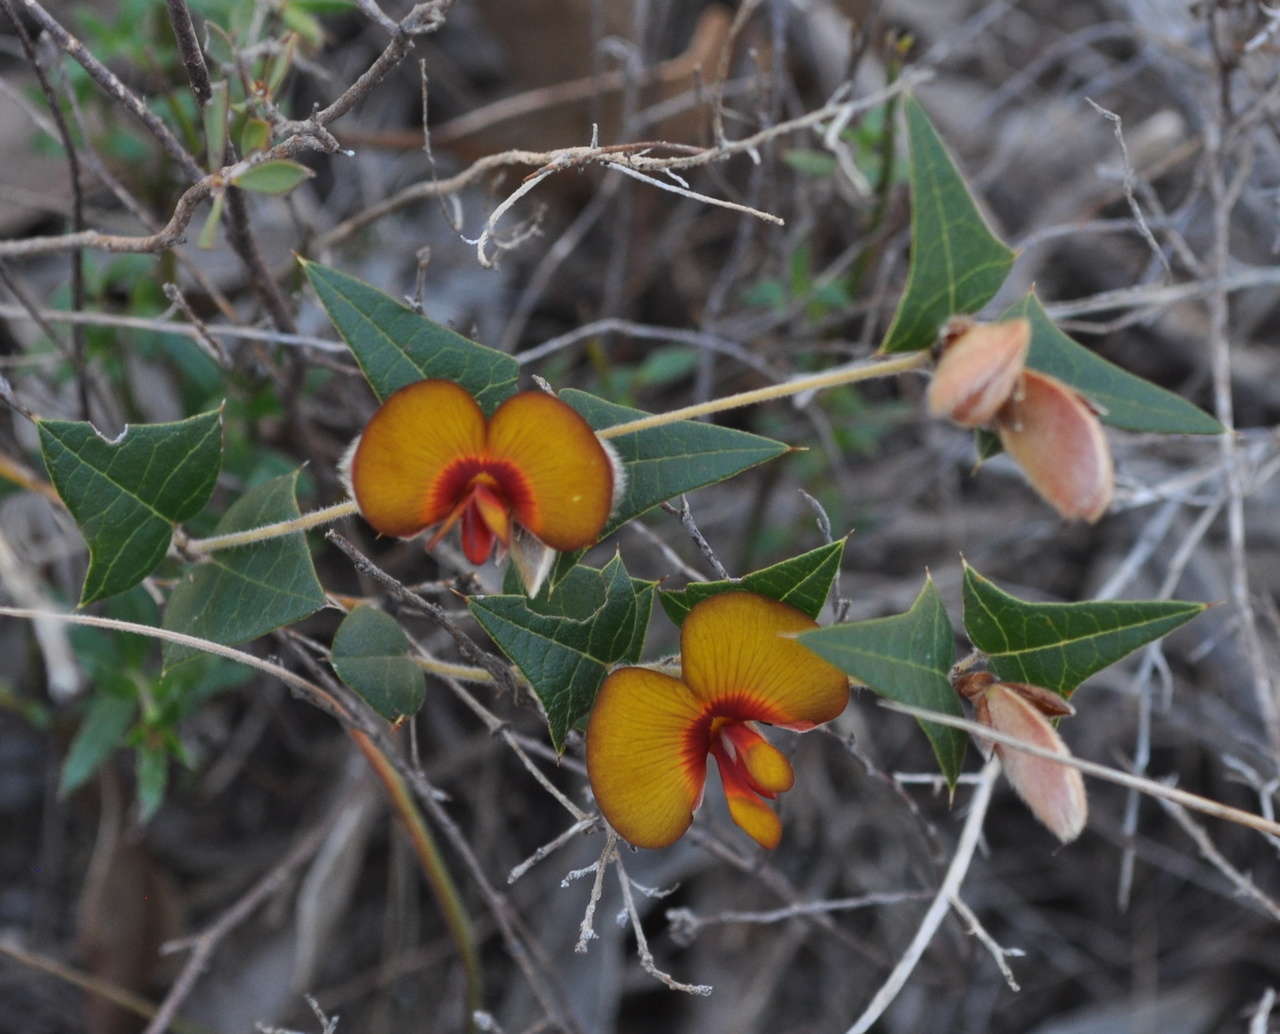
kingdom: Plantae
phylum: Tracheophyta
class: Magnoliopsida
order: Fabales
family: Fabaceae
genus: Platylobium
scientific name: Platylobium obtusangulum
